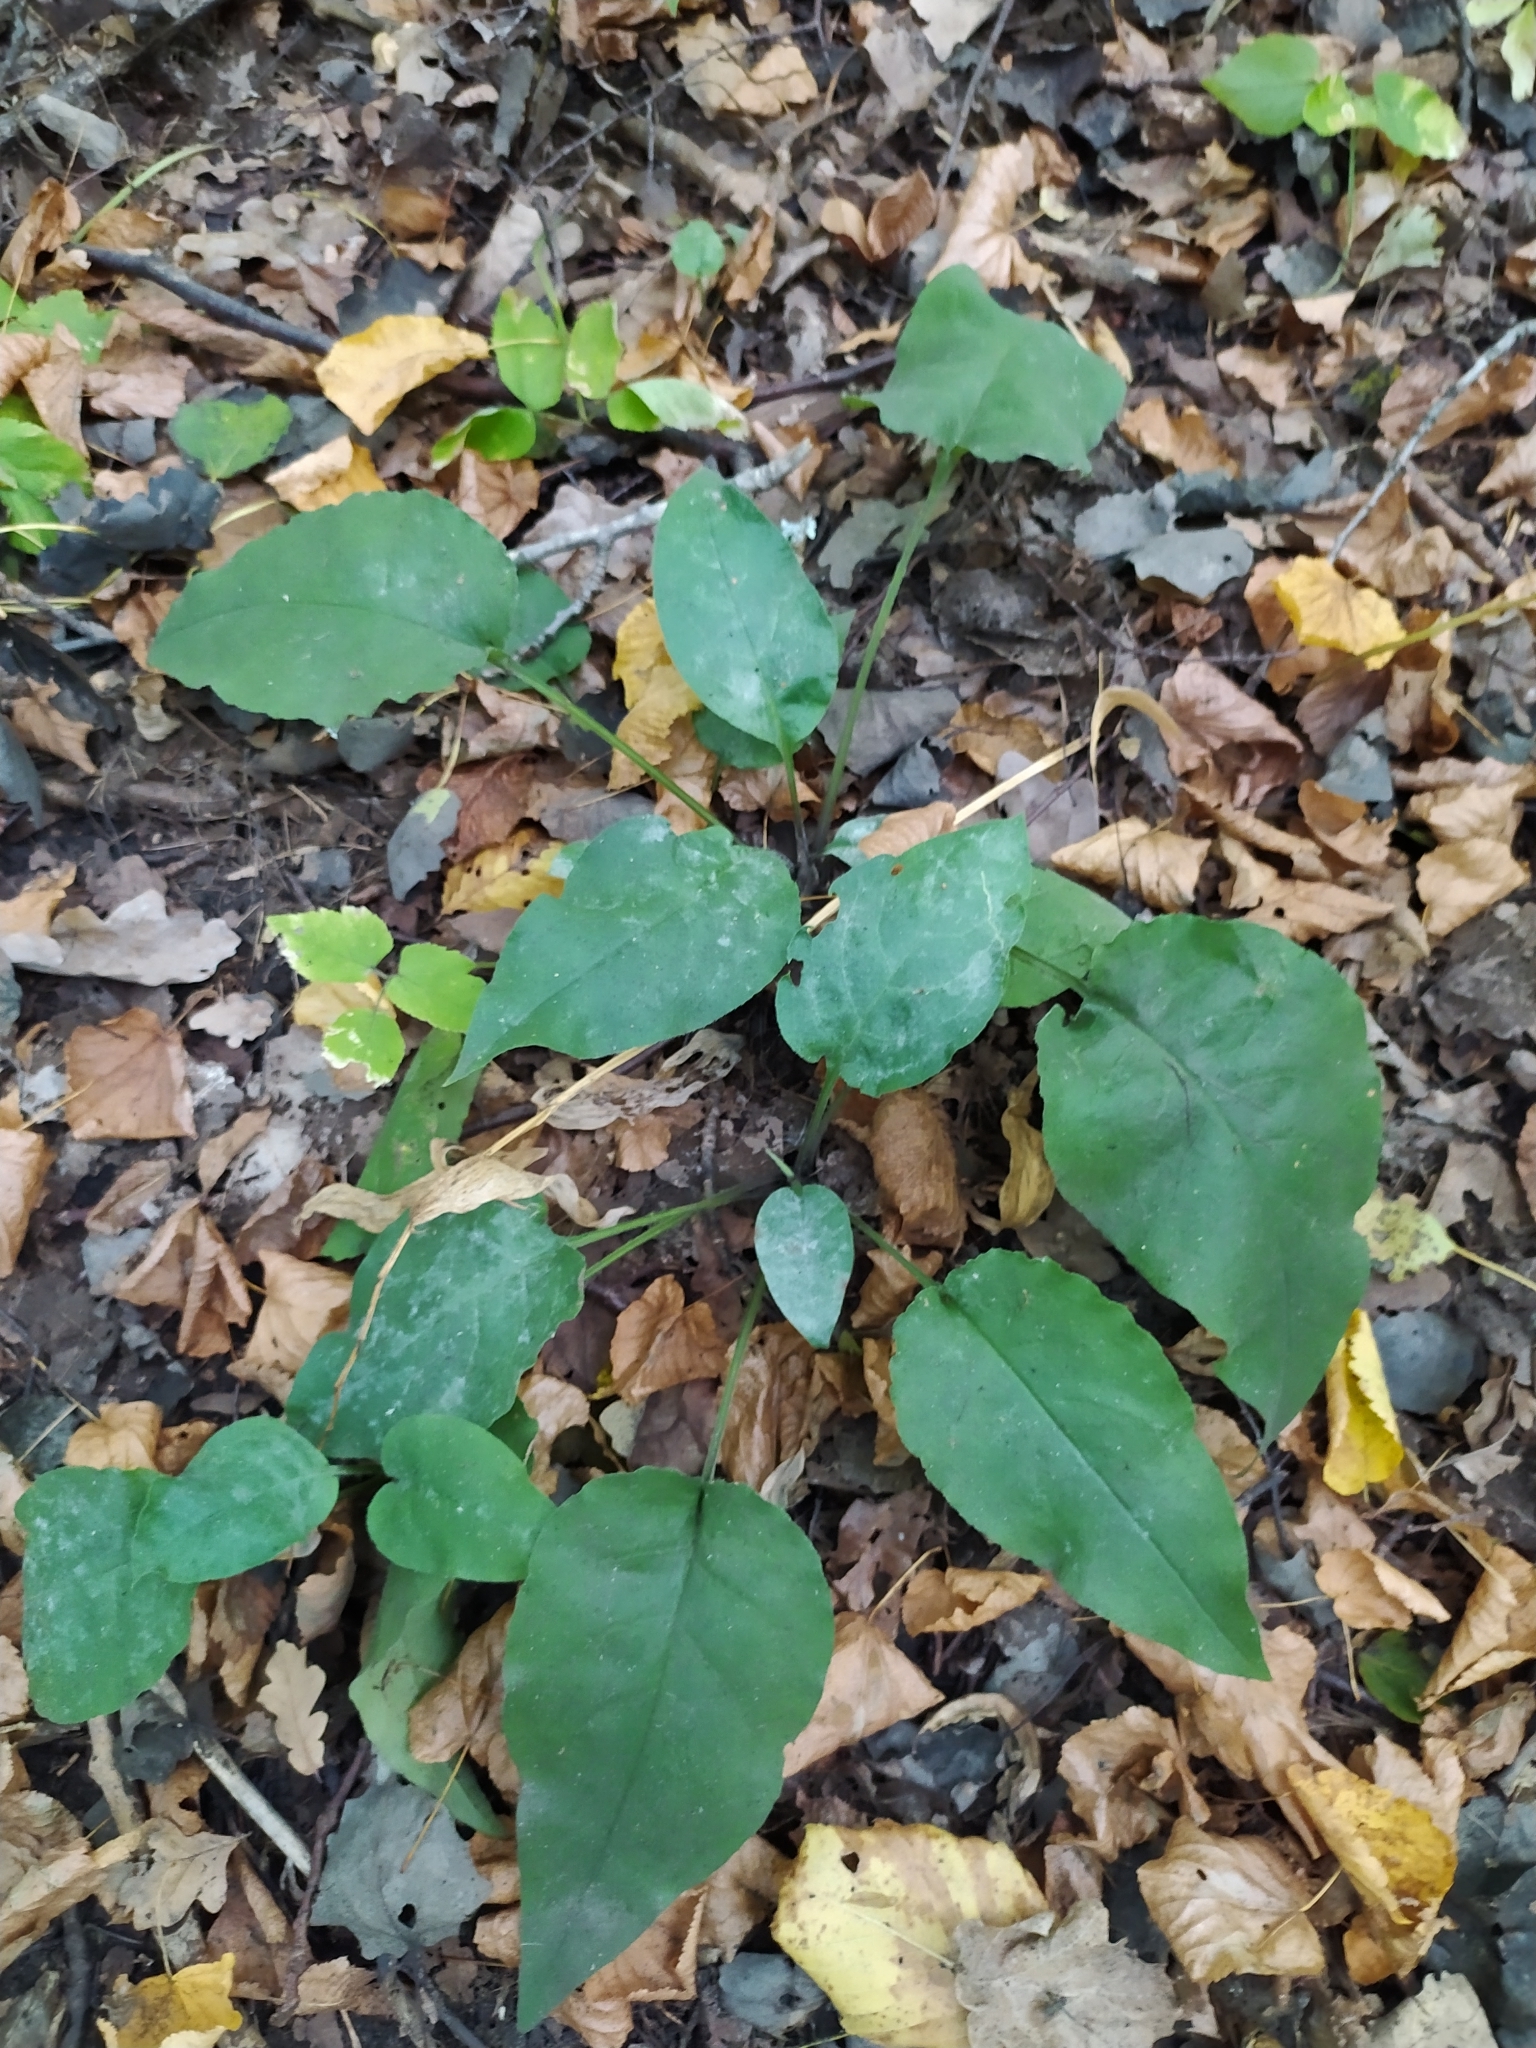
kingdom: Plantae
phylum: Tracheophyta
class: Magnoliopsida
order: Boraginales
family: Boraginaceae
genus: Pulmonaria
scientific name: Pulmonaria obscura
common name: Suffolk lungwort
